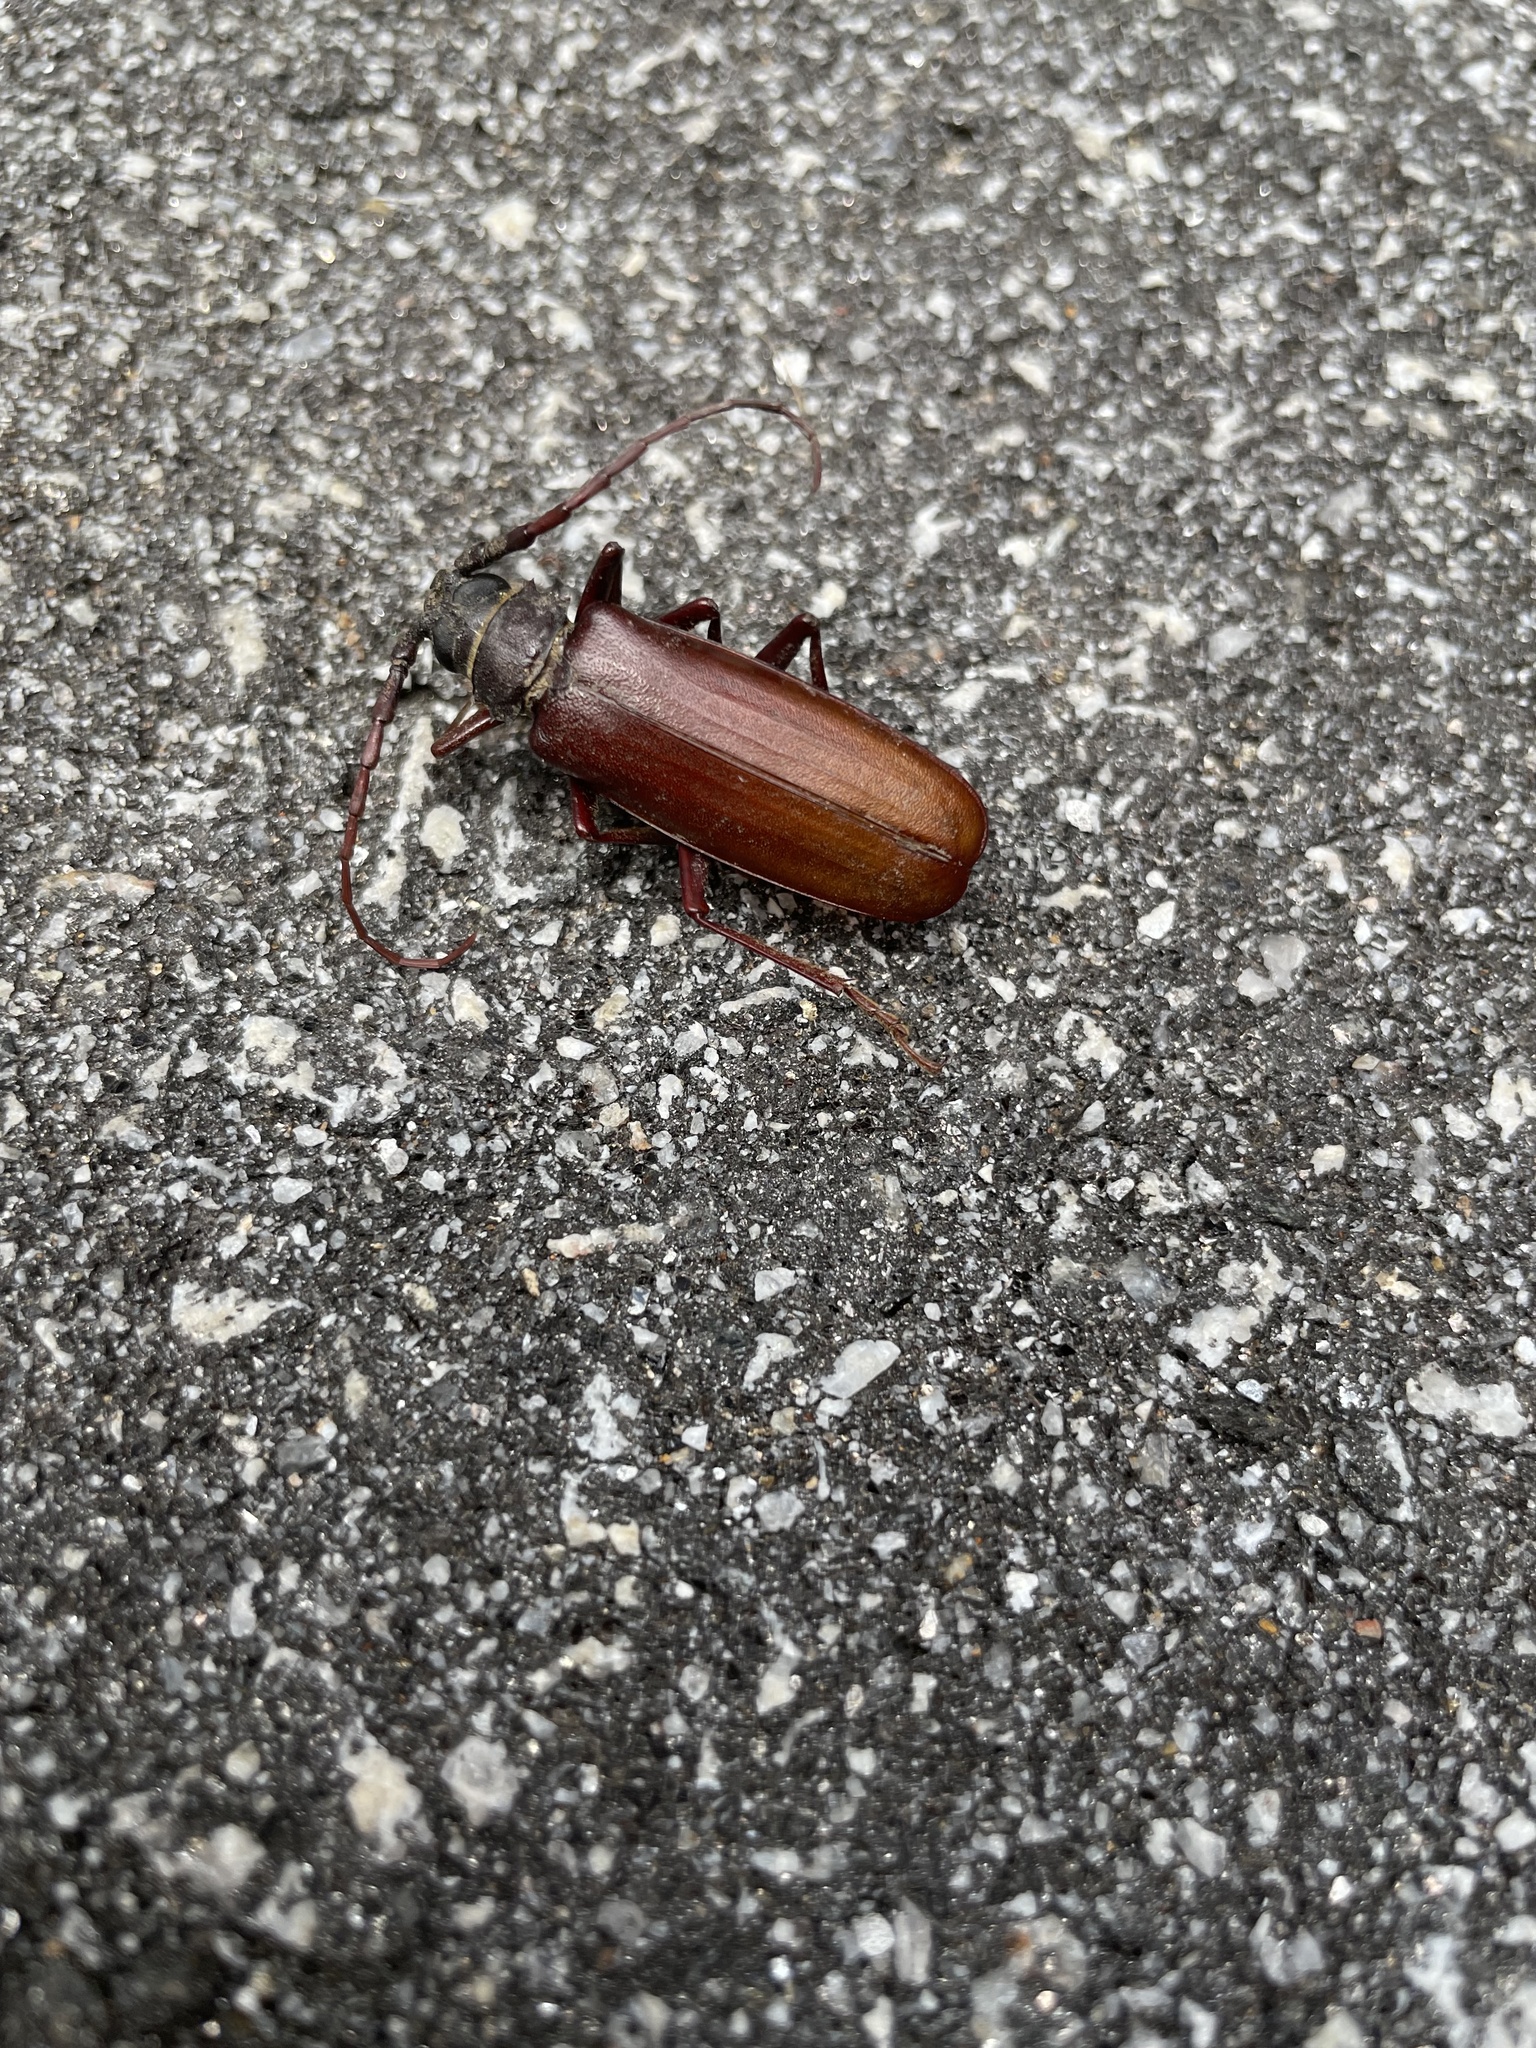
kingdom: Animalia
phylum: Arthropoda
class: Insecta
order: Coleoptera
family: Cerambycidae
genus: Orthosoma
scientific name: Orthosoma brunneum
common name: Brown prionid beetle
